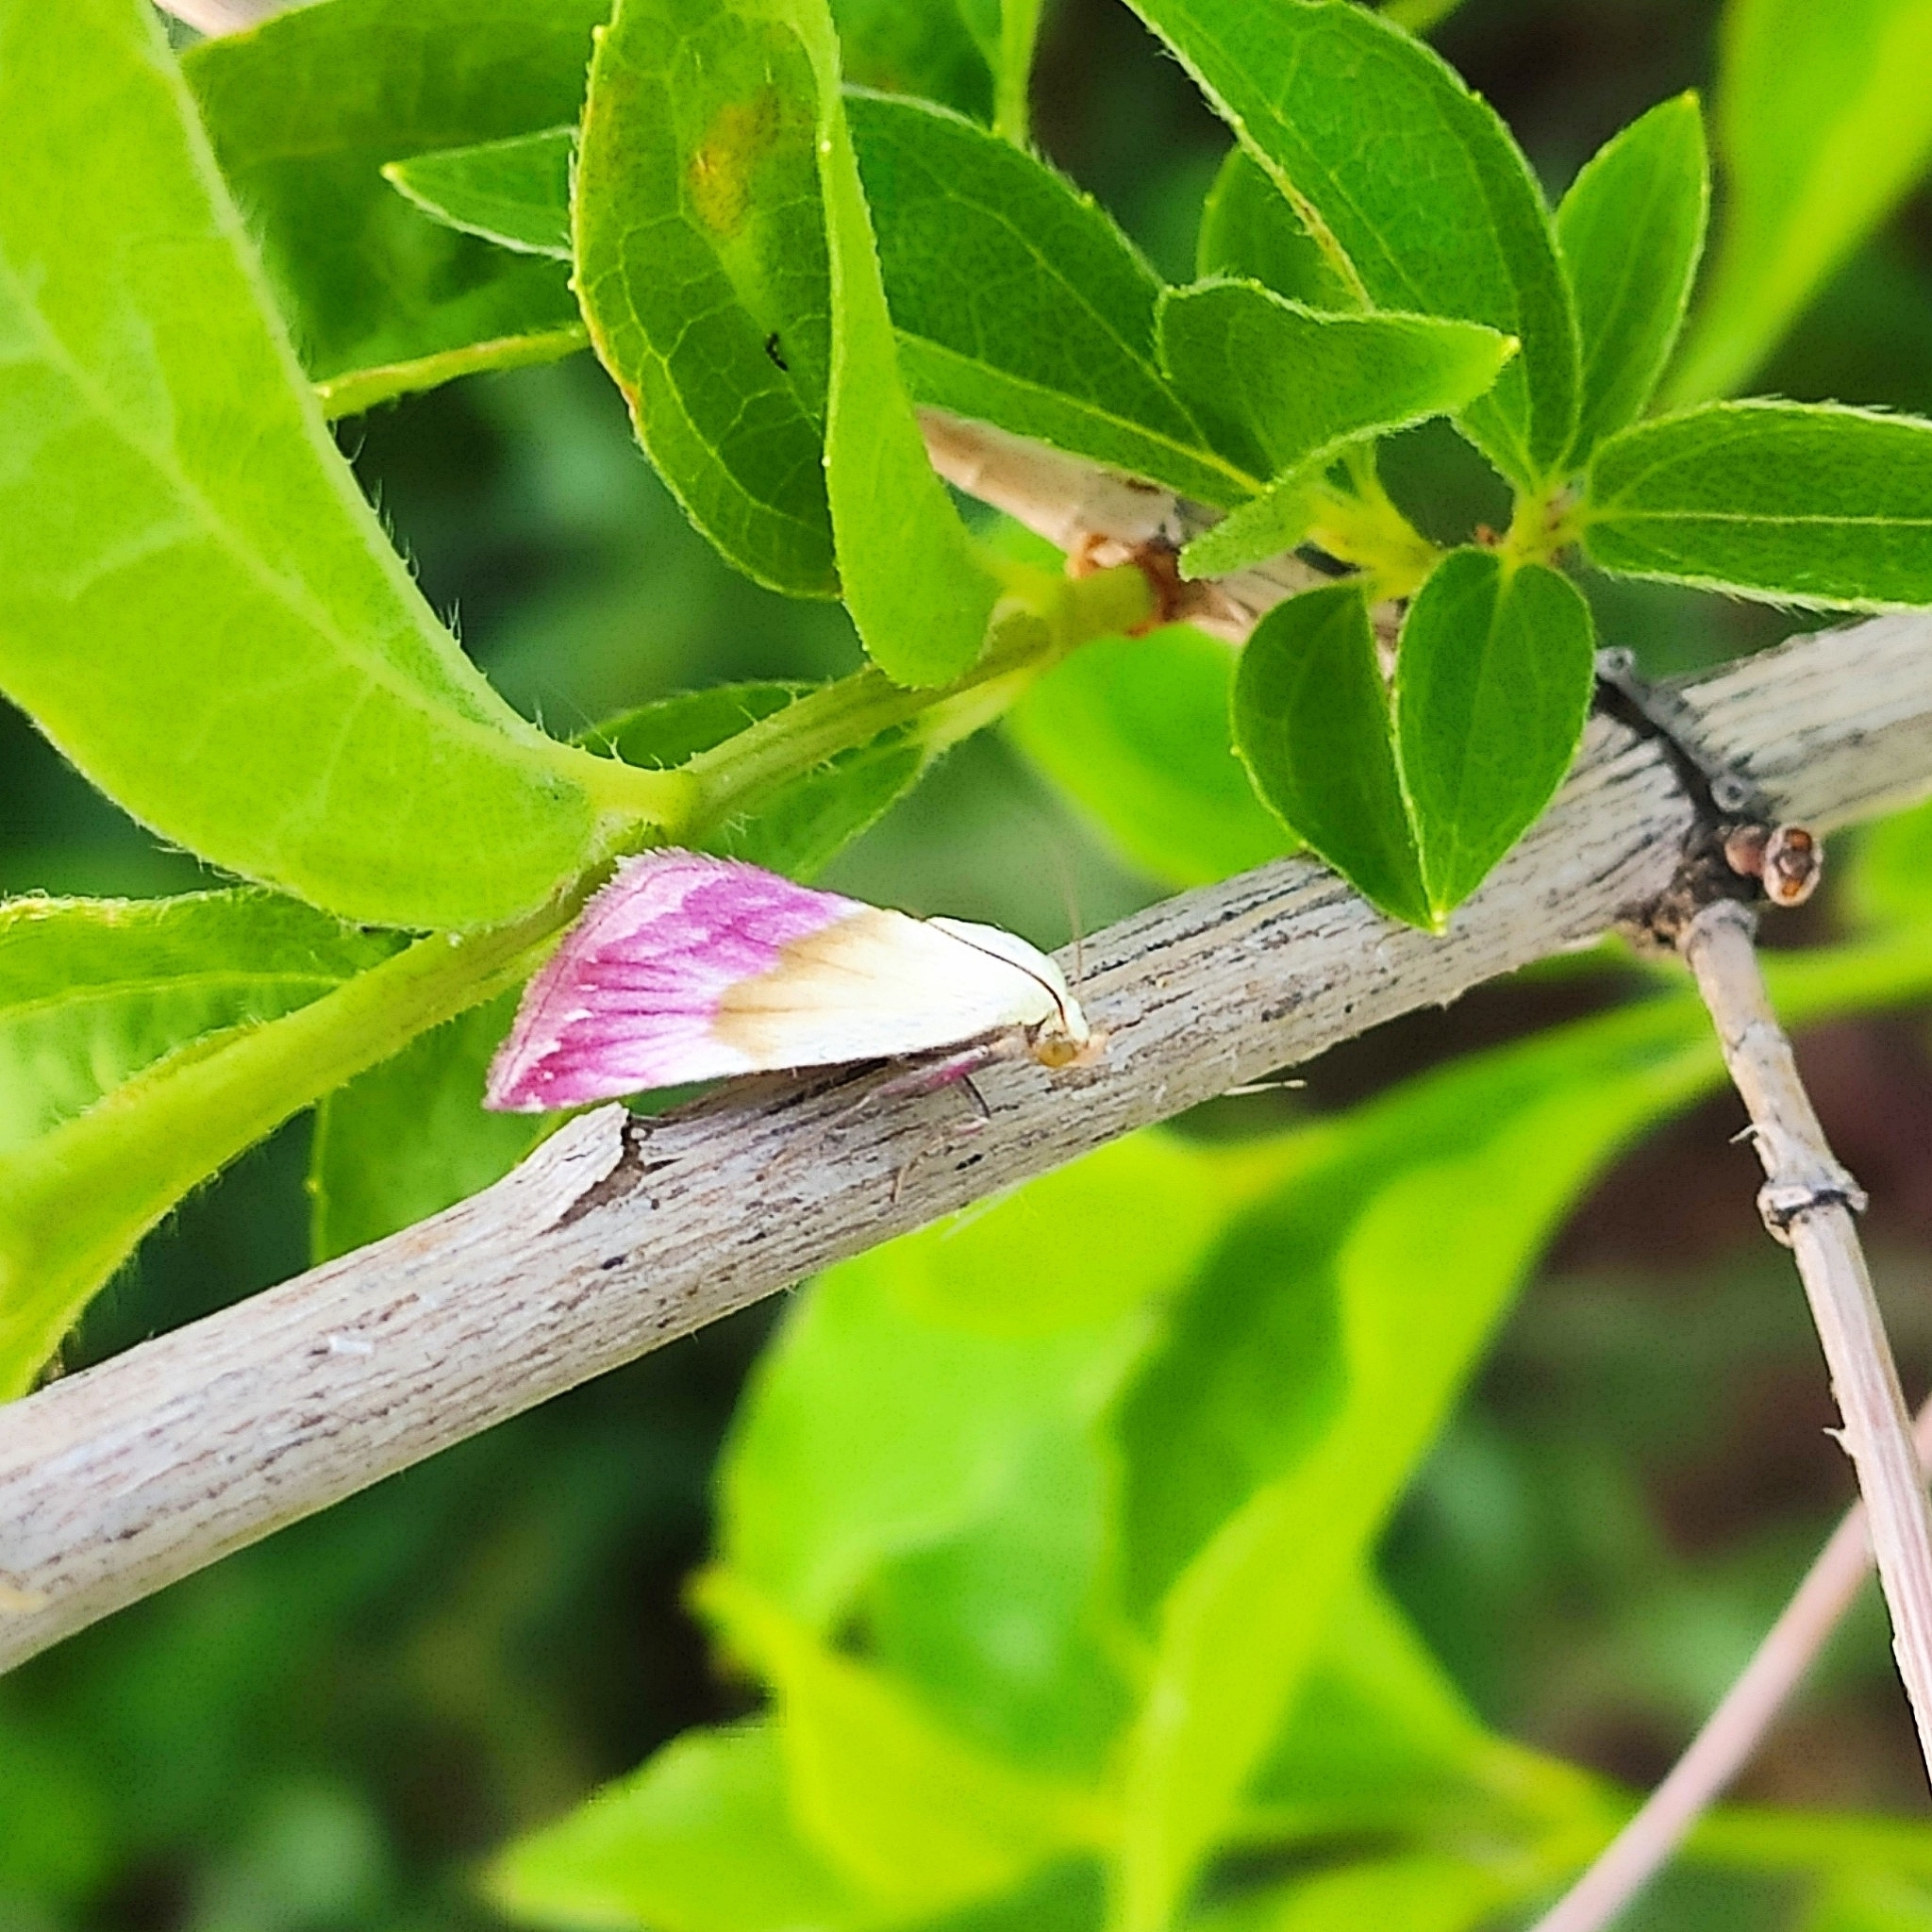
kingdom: Animalia
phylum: Arthropoda
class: Insecta
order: Lepidoptera
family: Noctuidae
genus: Eublemma
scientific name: Eublemma purpurina
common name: Beautiful marbled
